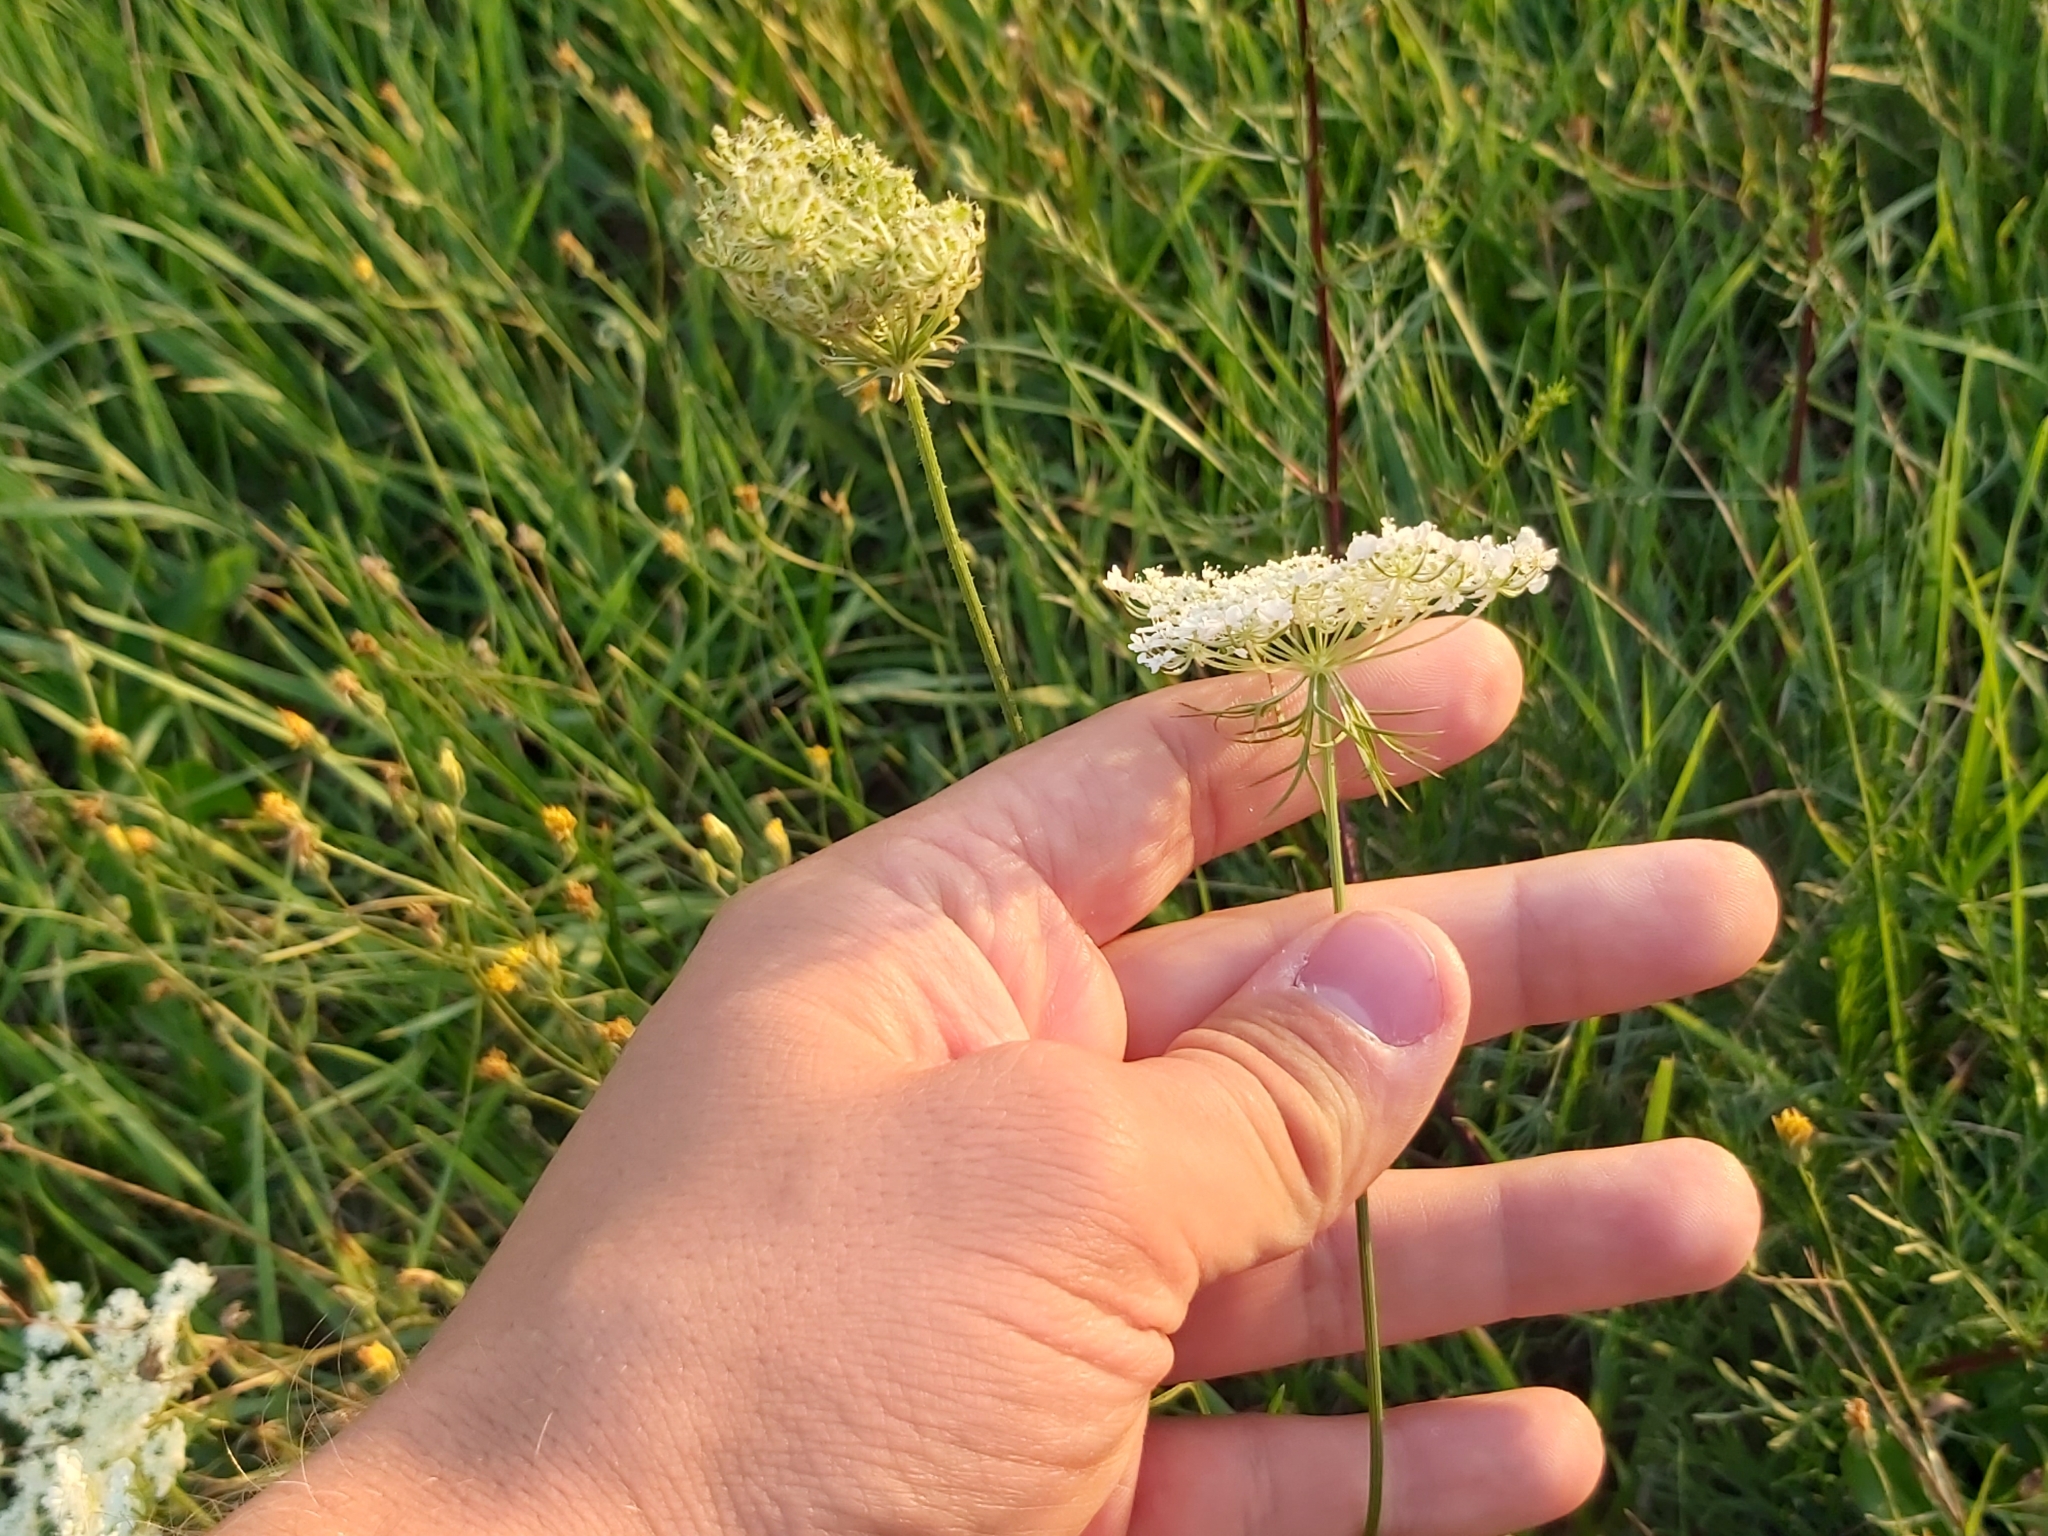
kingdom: Plantae
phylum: Tracheophyta
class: Magnoliopsida
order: Apiales
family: Apiaceae
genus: Daucus
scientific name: Daucus carota
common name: Wild carrot
